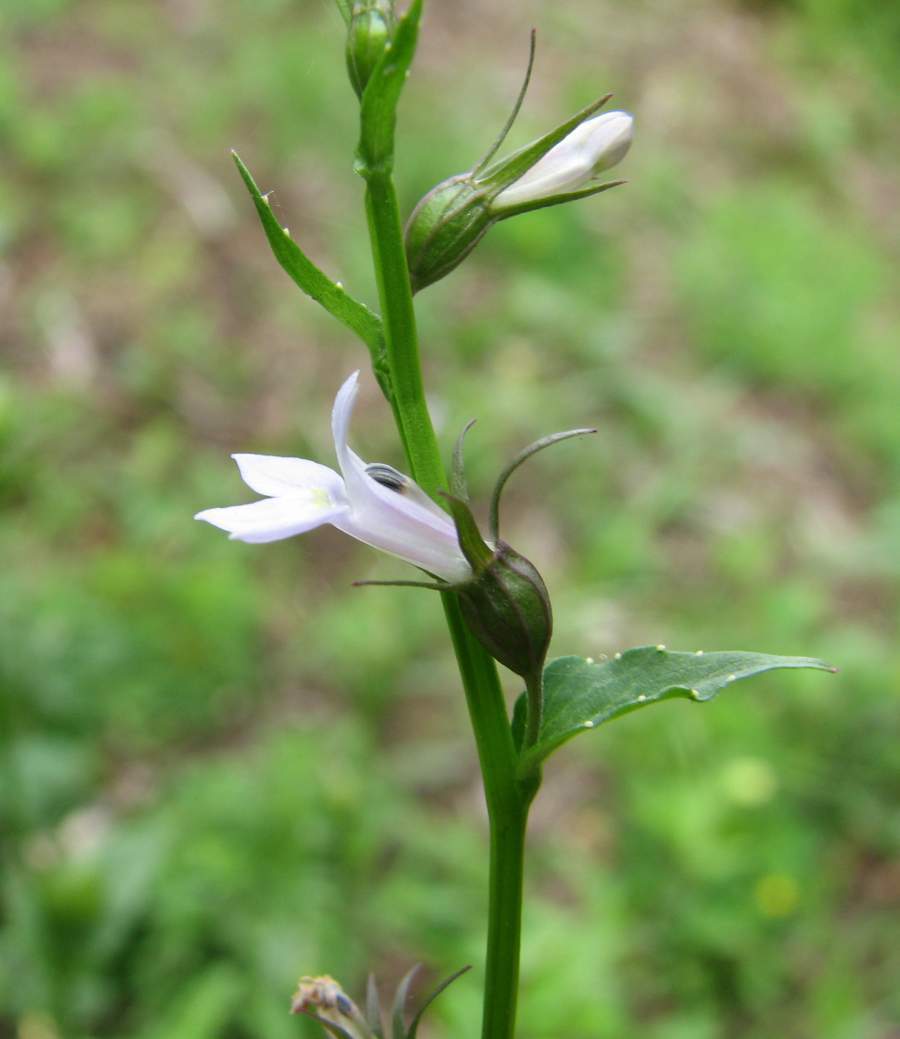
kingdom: Plantae
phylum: Tracheophyta
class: Magnoliopsida
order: Asterales
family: Campanulaceae
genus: Lobelia
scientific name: Lobelia inflata
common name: Indian tobacco
